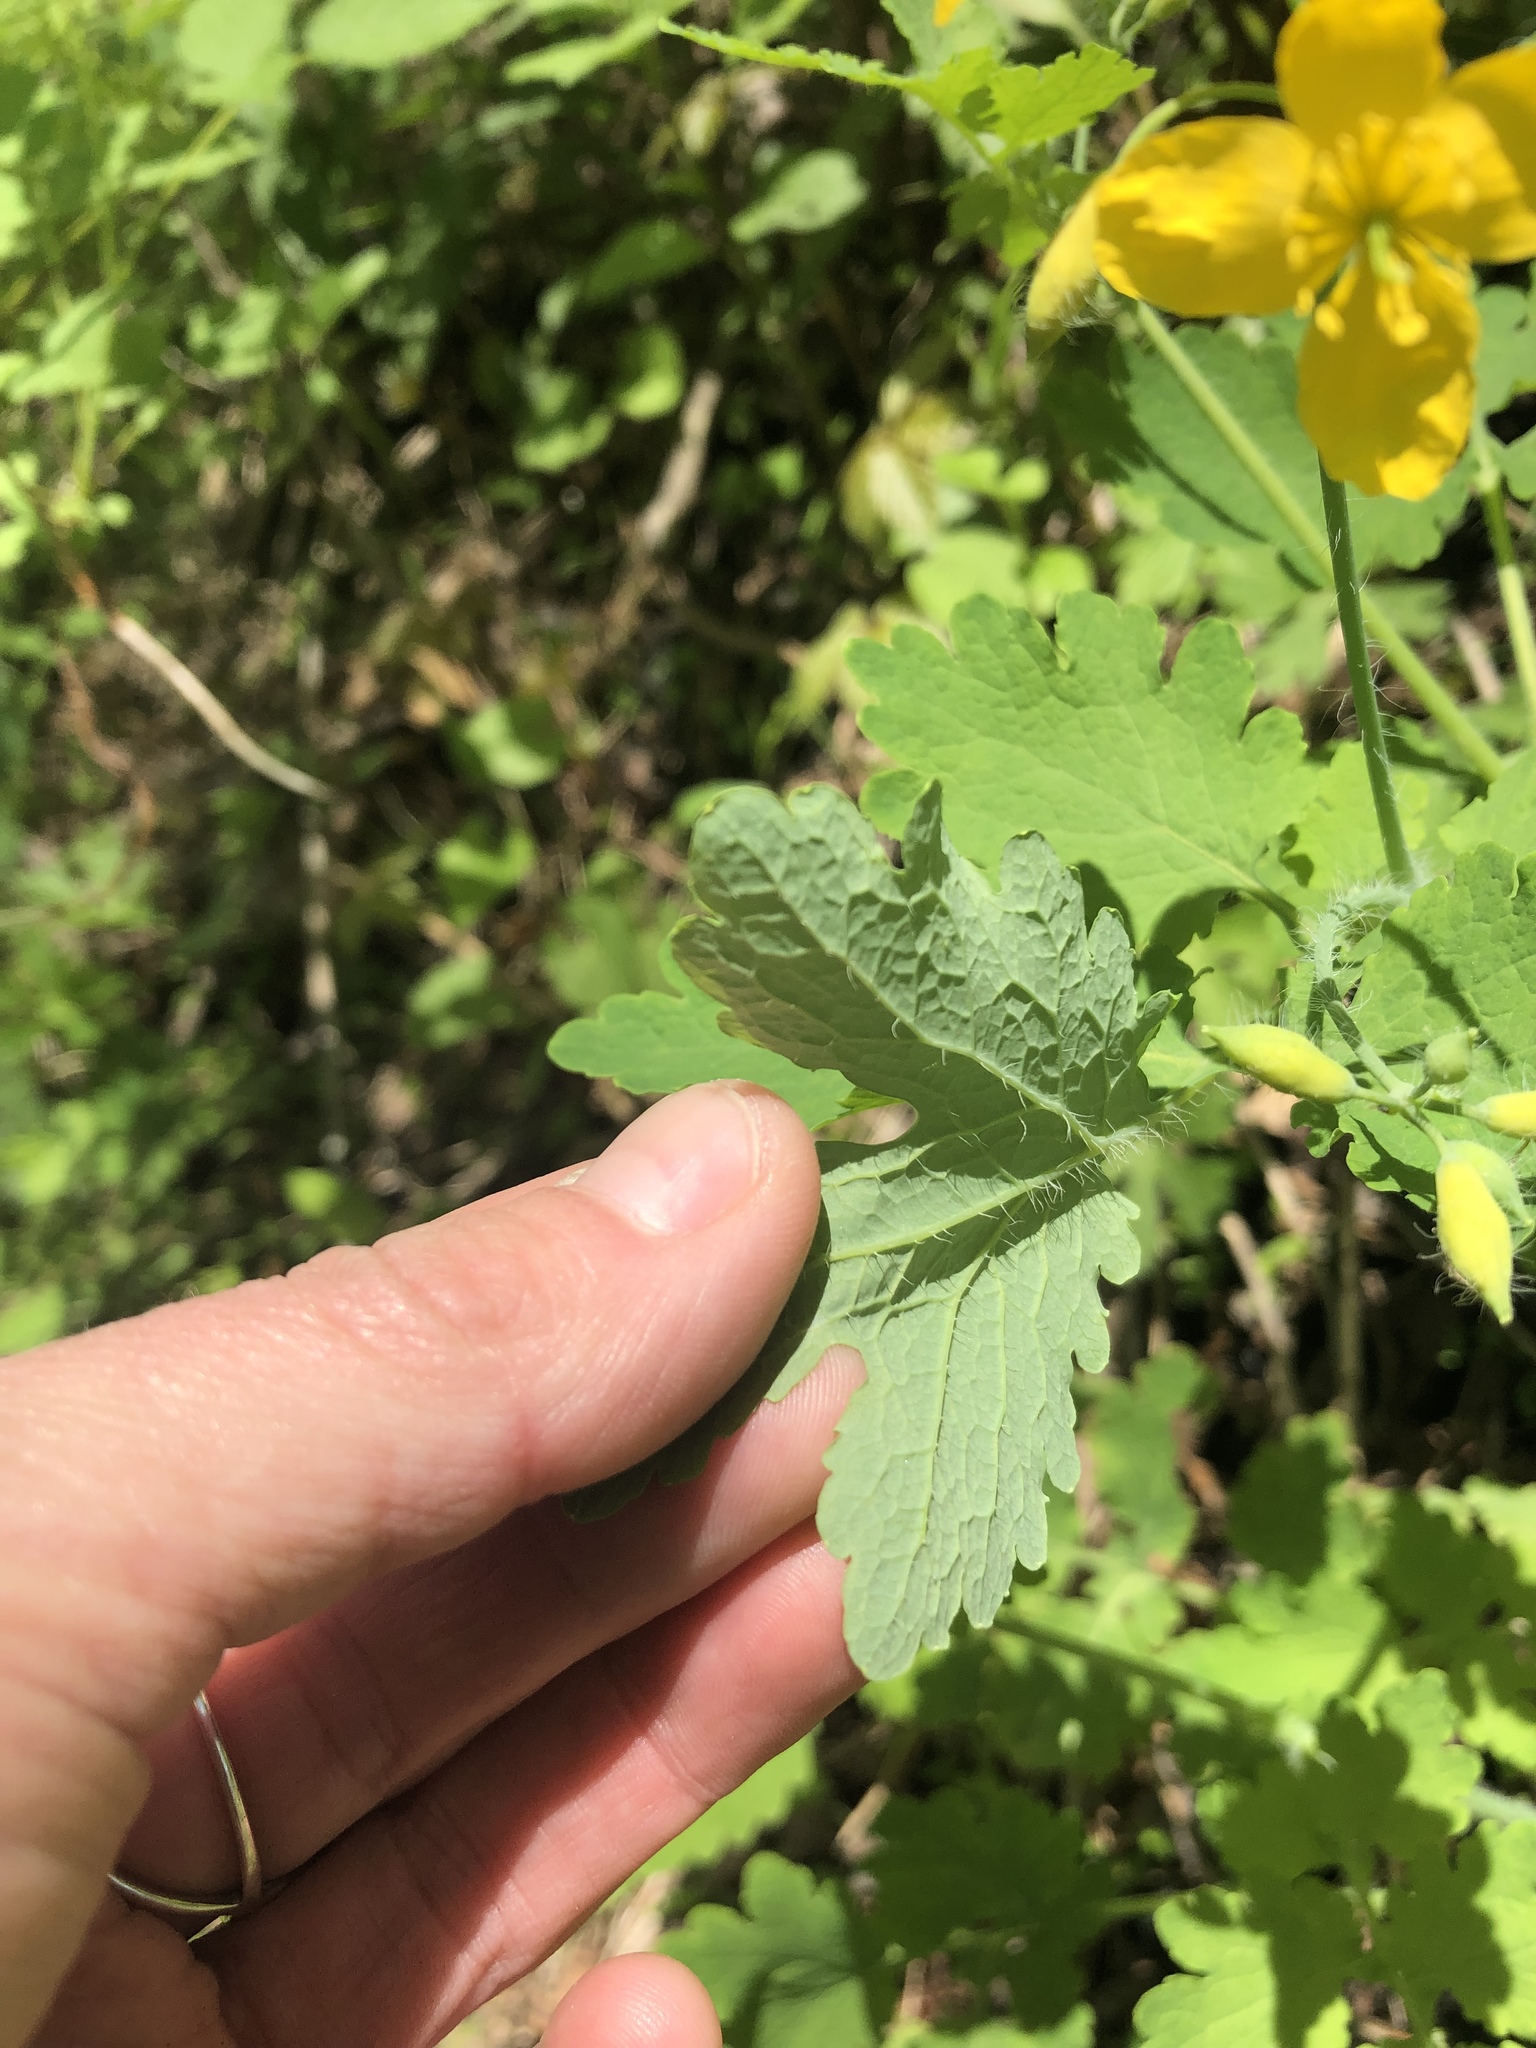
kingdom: Plantae
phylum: Tracheophyta
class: Magnoliopsida
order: Ranunculales
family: Papaveraceae
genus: Chelidonium
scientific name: Chelidonium majus
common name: Greater celandine
